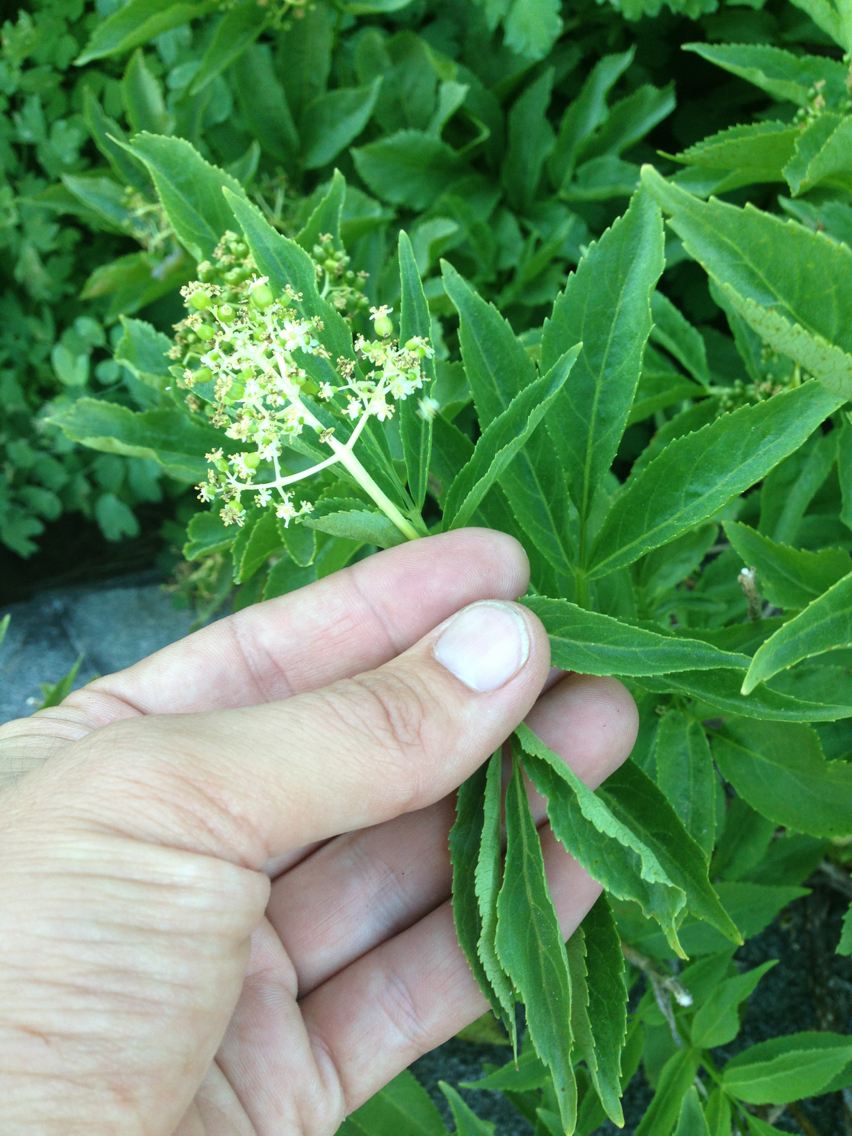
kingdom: Plantae
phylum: Tracheophyta
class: Magnoliopsida
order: Dipsacales
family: Viburnaceae
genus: Sambucus
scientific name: Sambucus racemosa
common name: Red-berried elder
